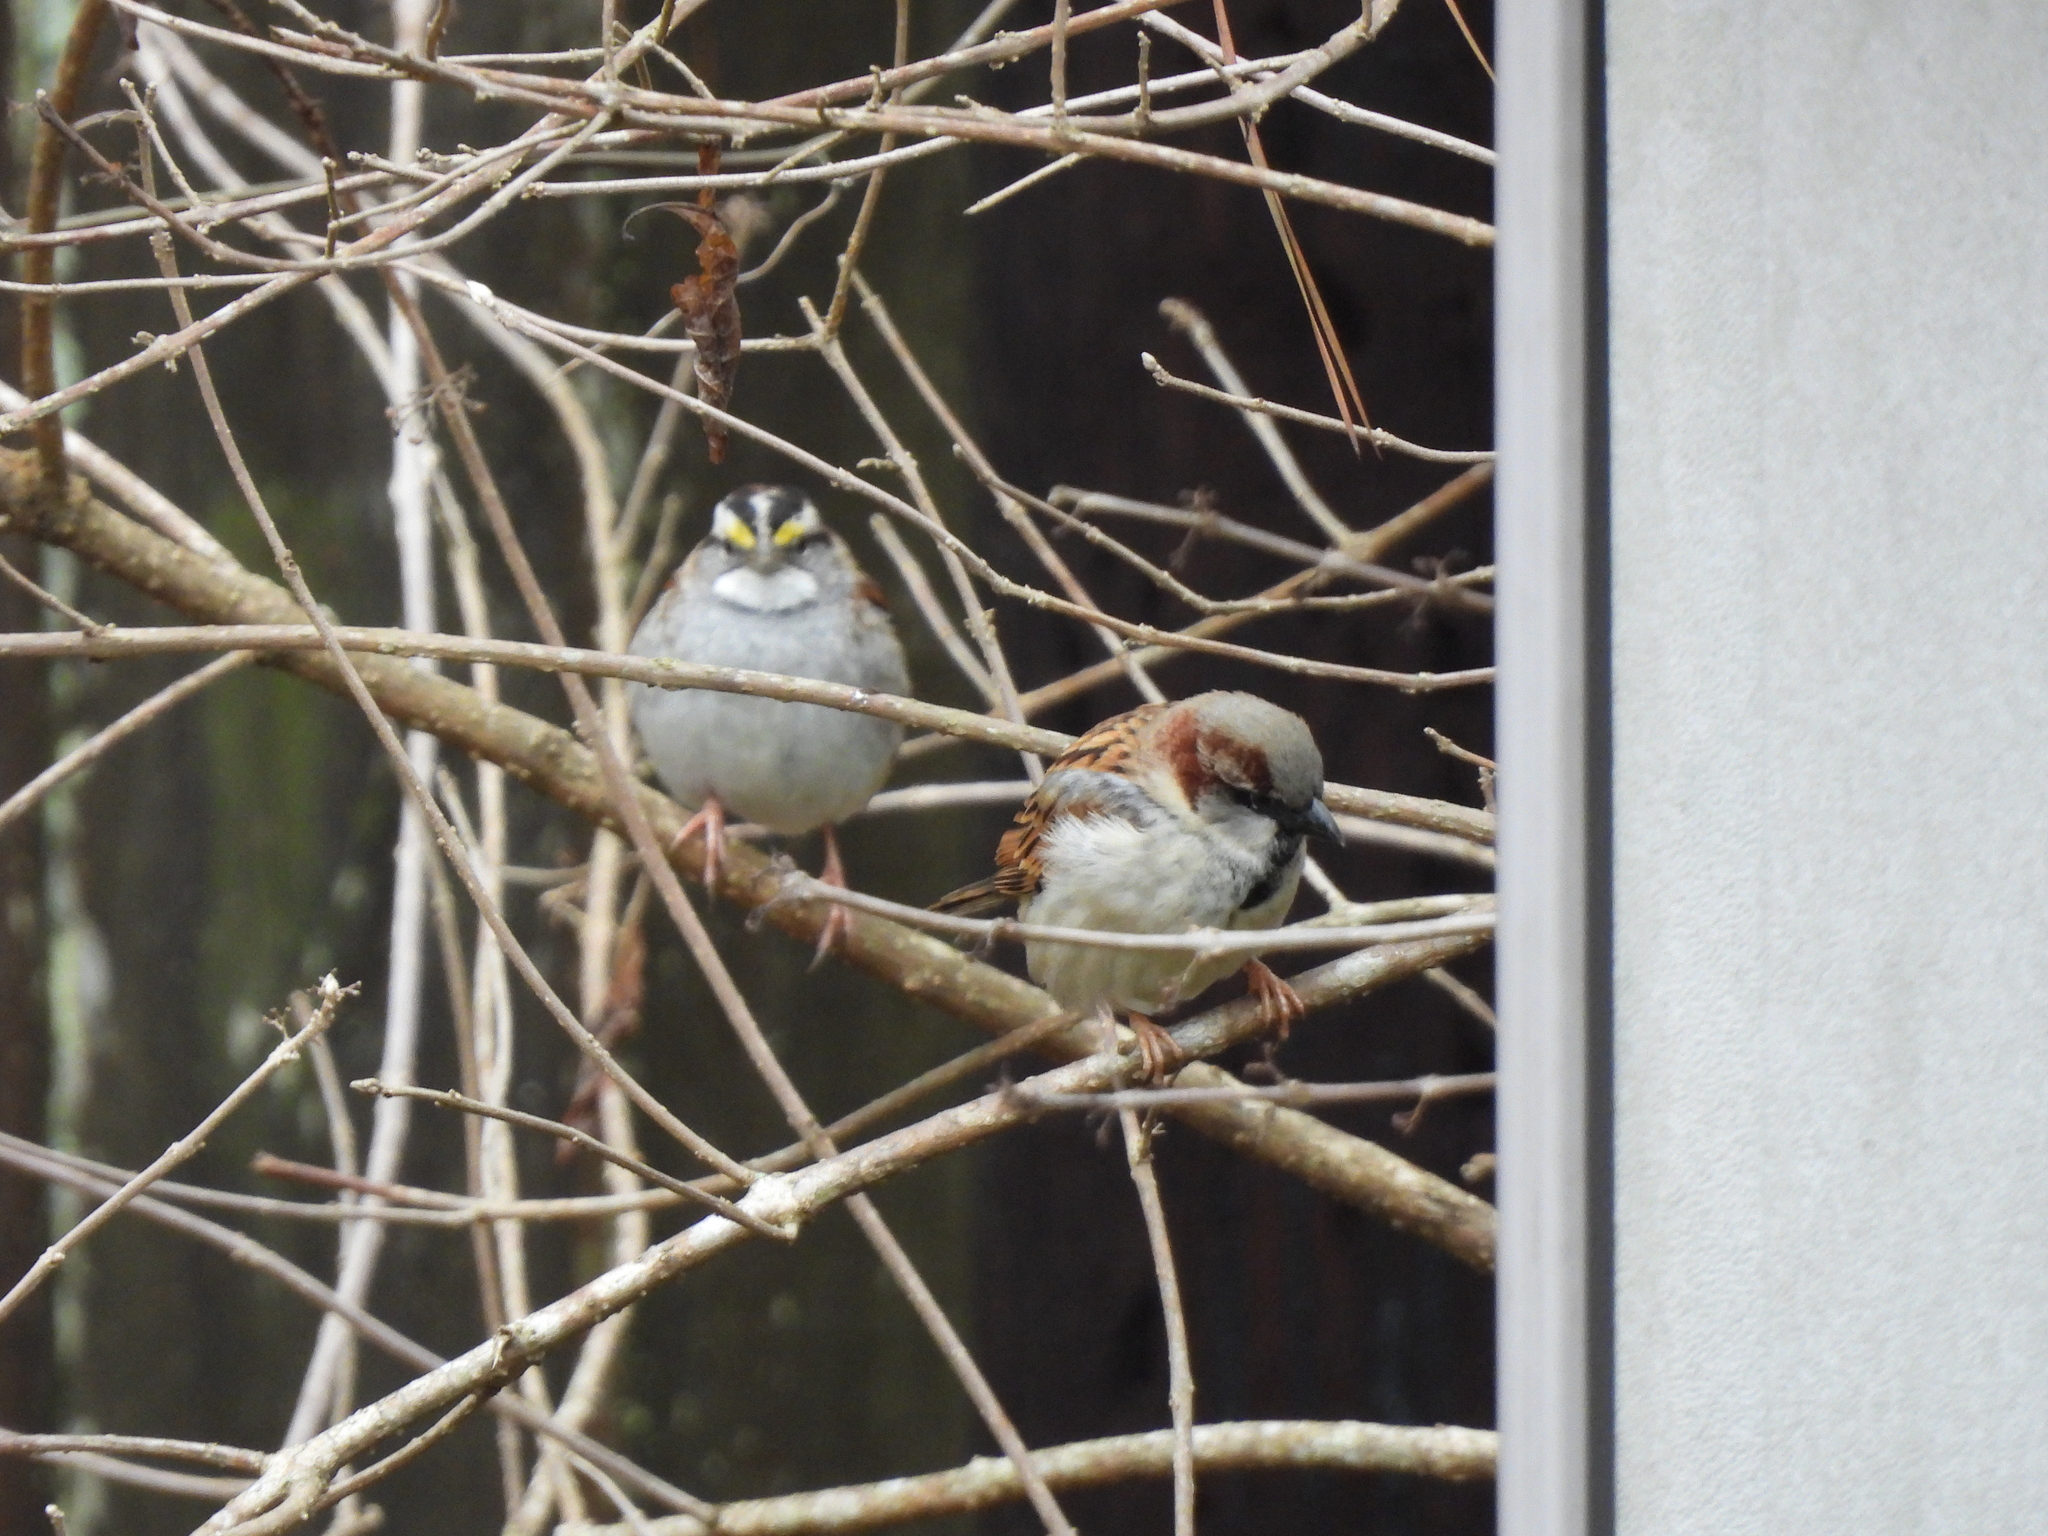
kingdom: Animalia
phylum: Chordata
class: Aves
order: Passeriformes
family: Passeridae
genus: Passer
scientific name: Passer domesticus
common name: House sparrow
